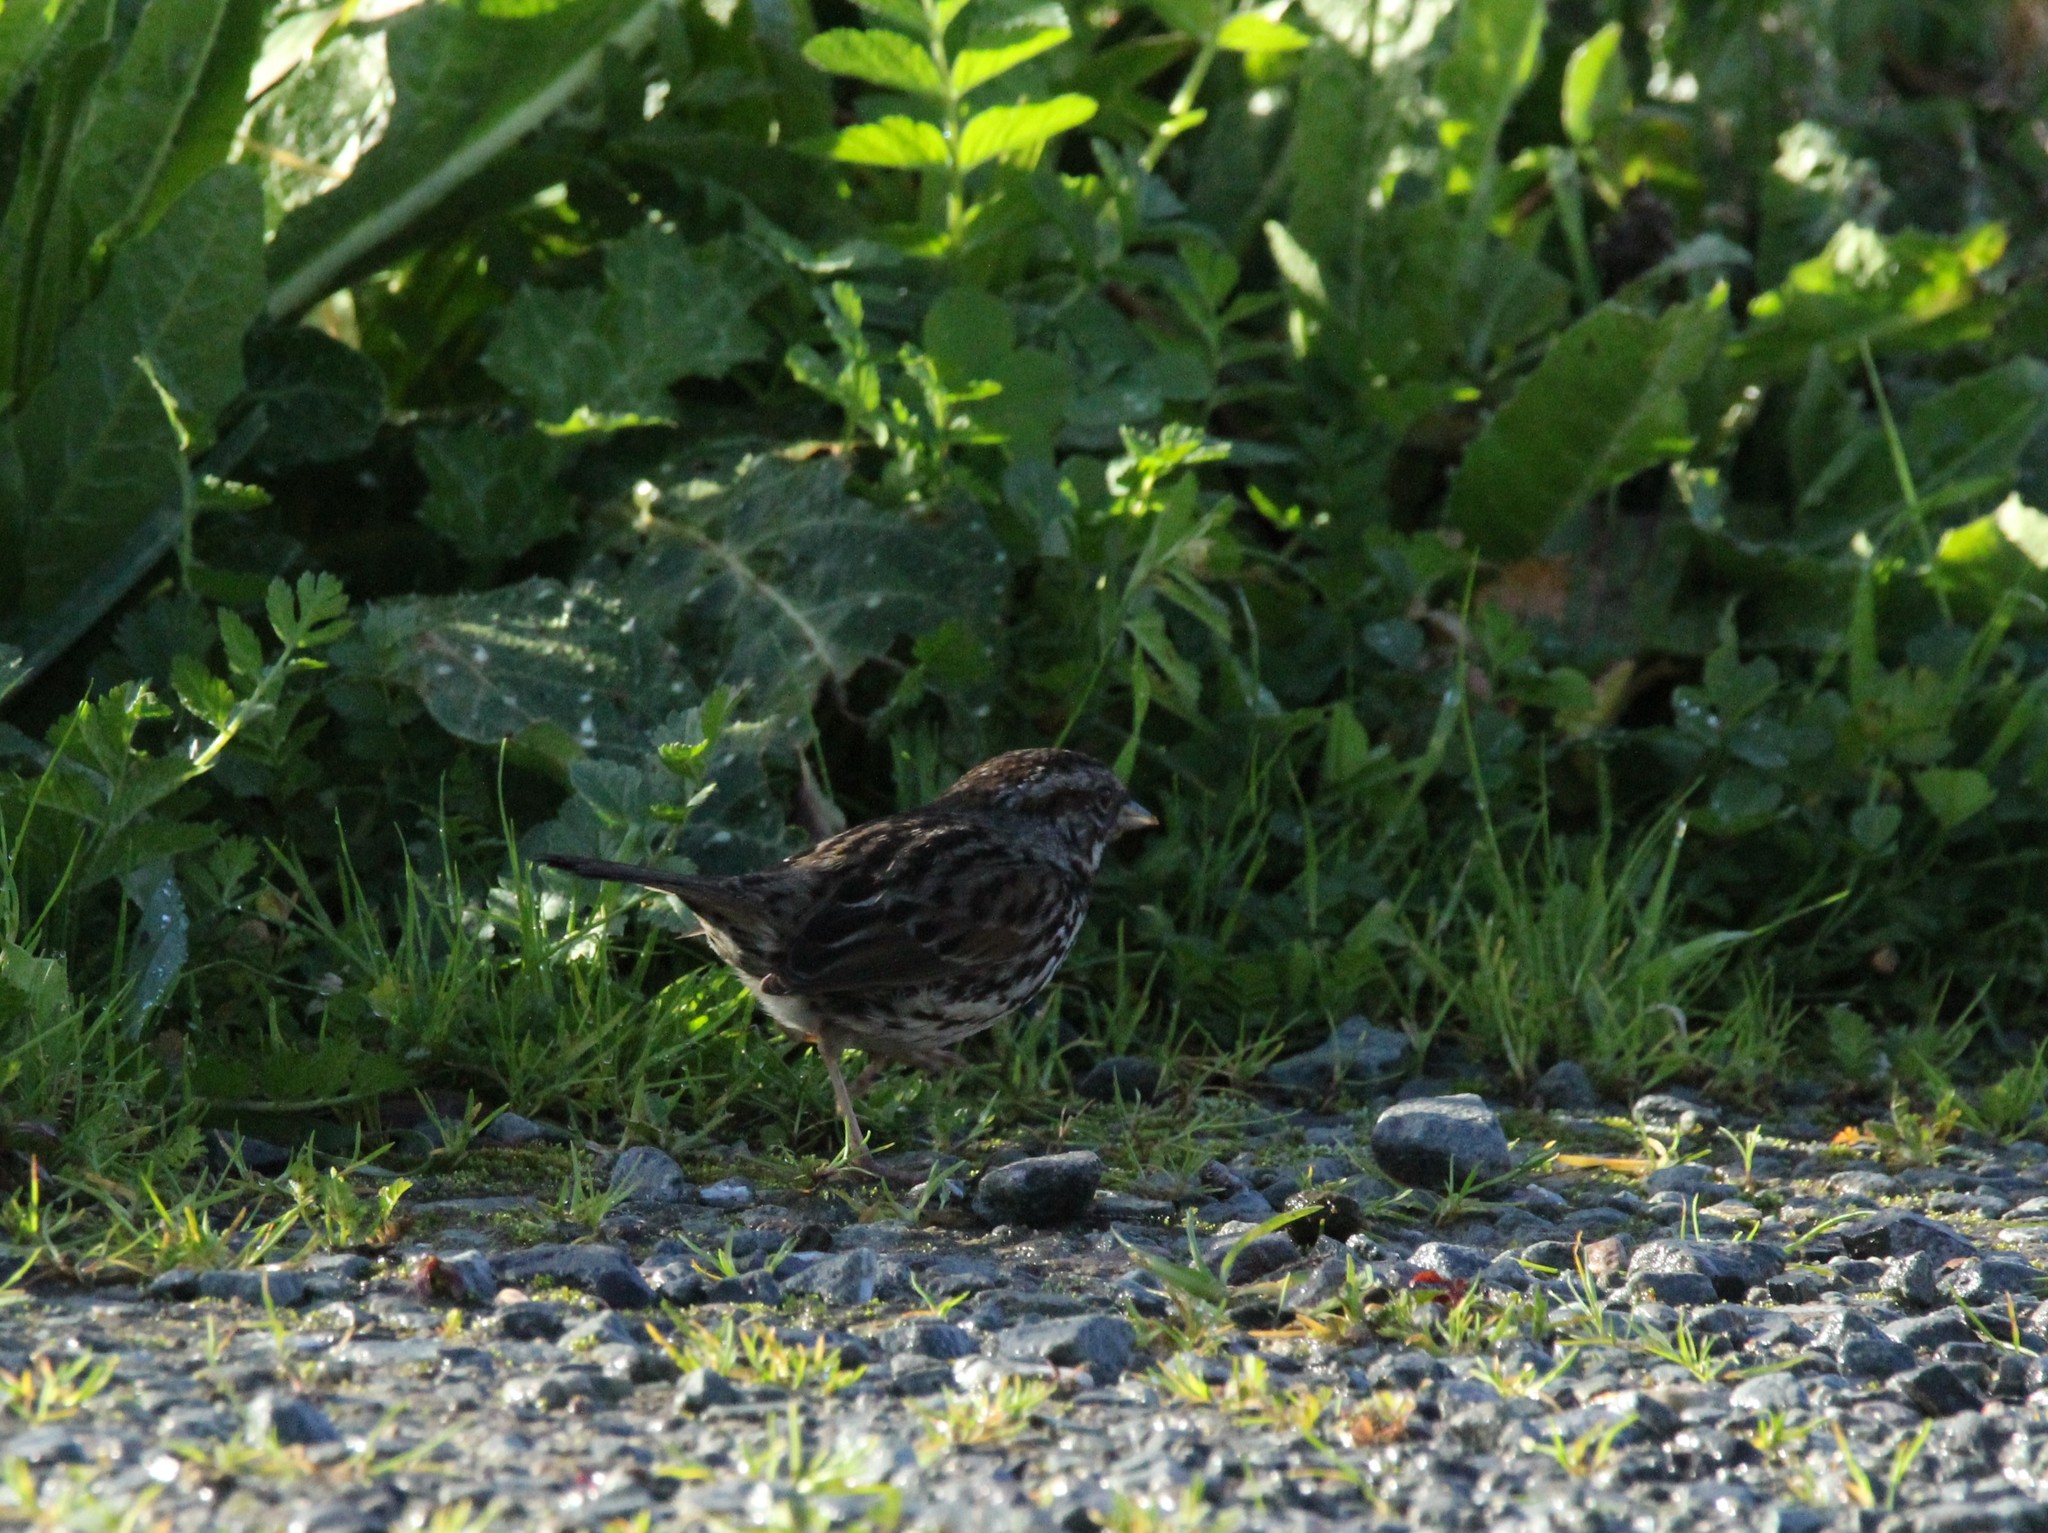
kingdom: Animalia
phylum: Chordata
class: Aves
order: Passeriformes
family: Passerellidae
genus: Melospiza
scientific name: Melospiza melodia
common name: Song sparrow
